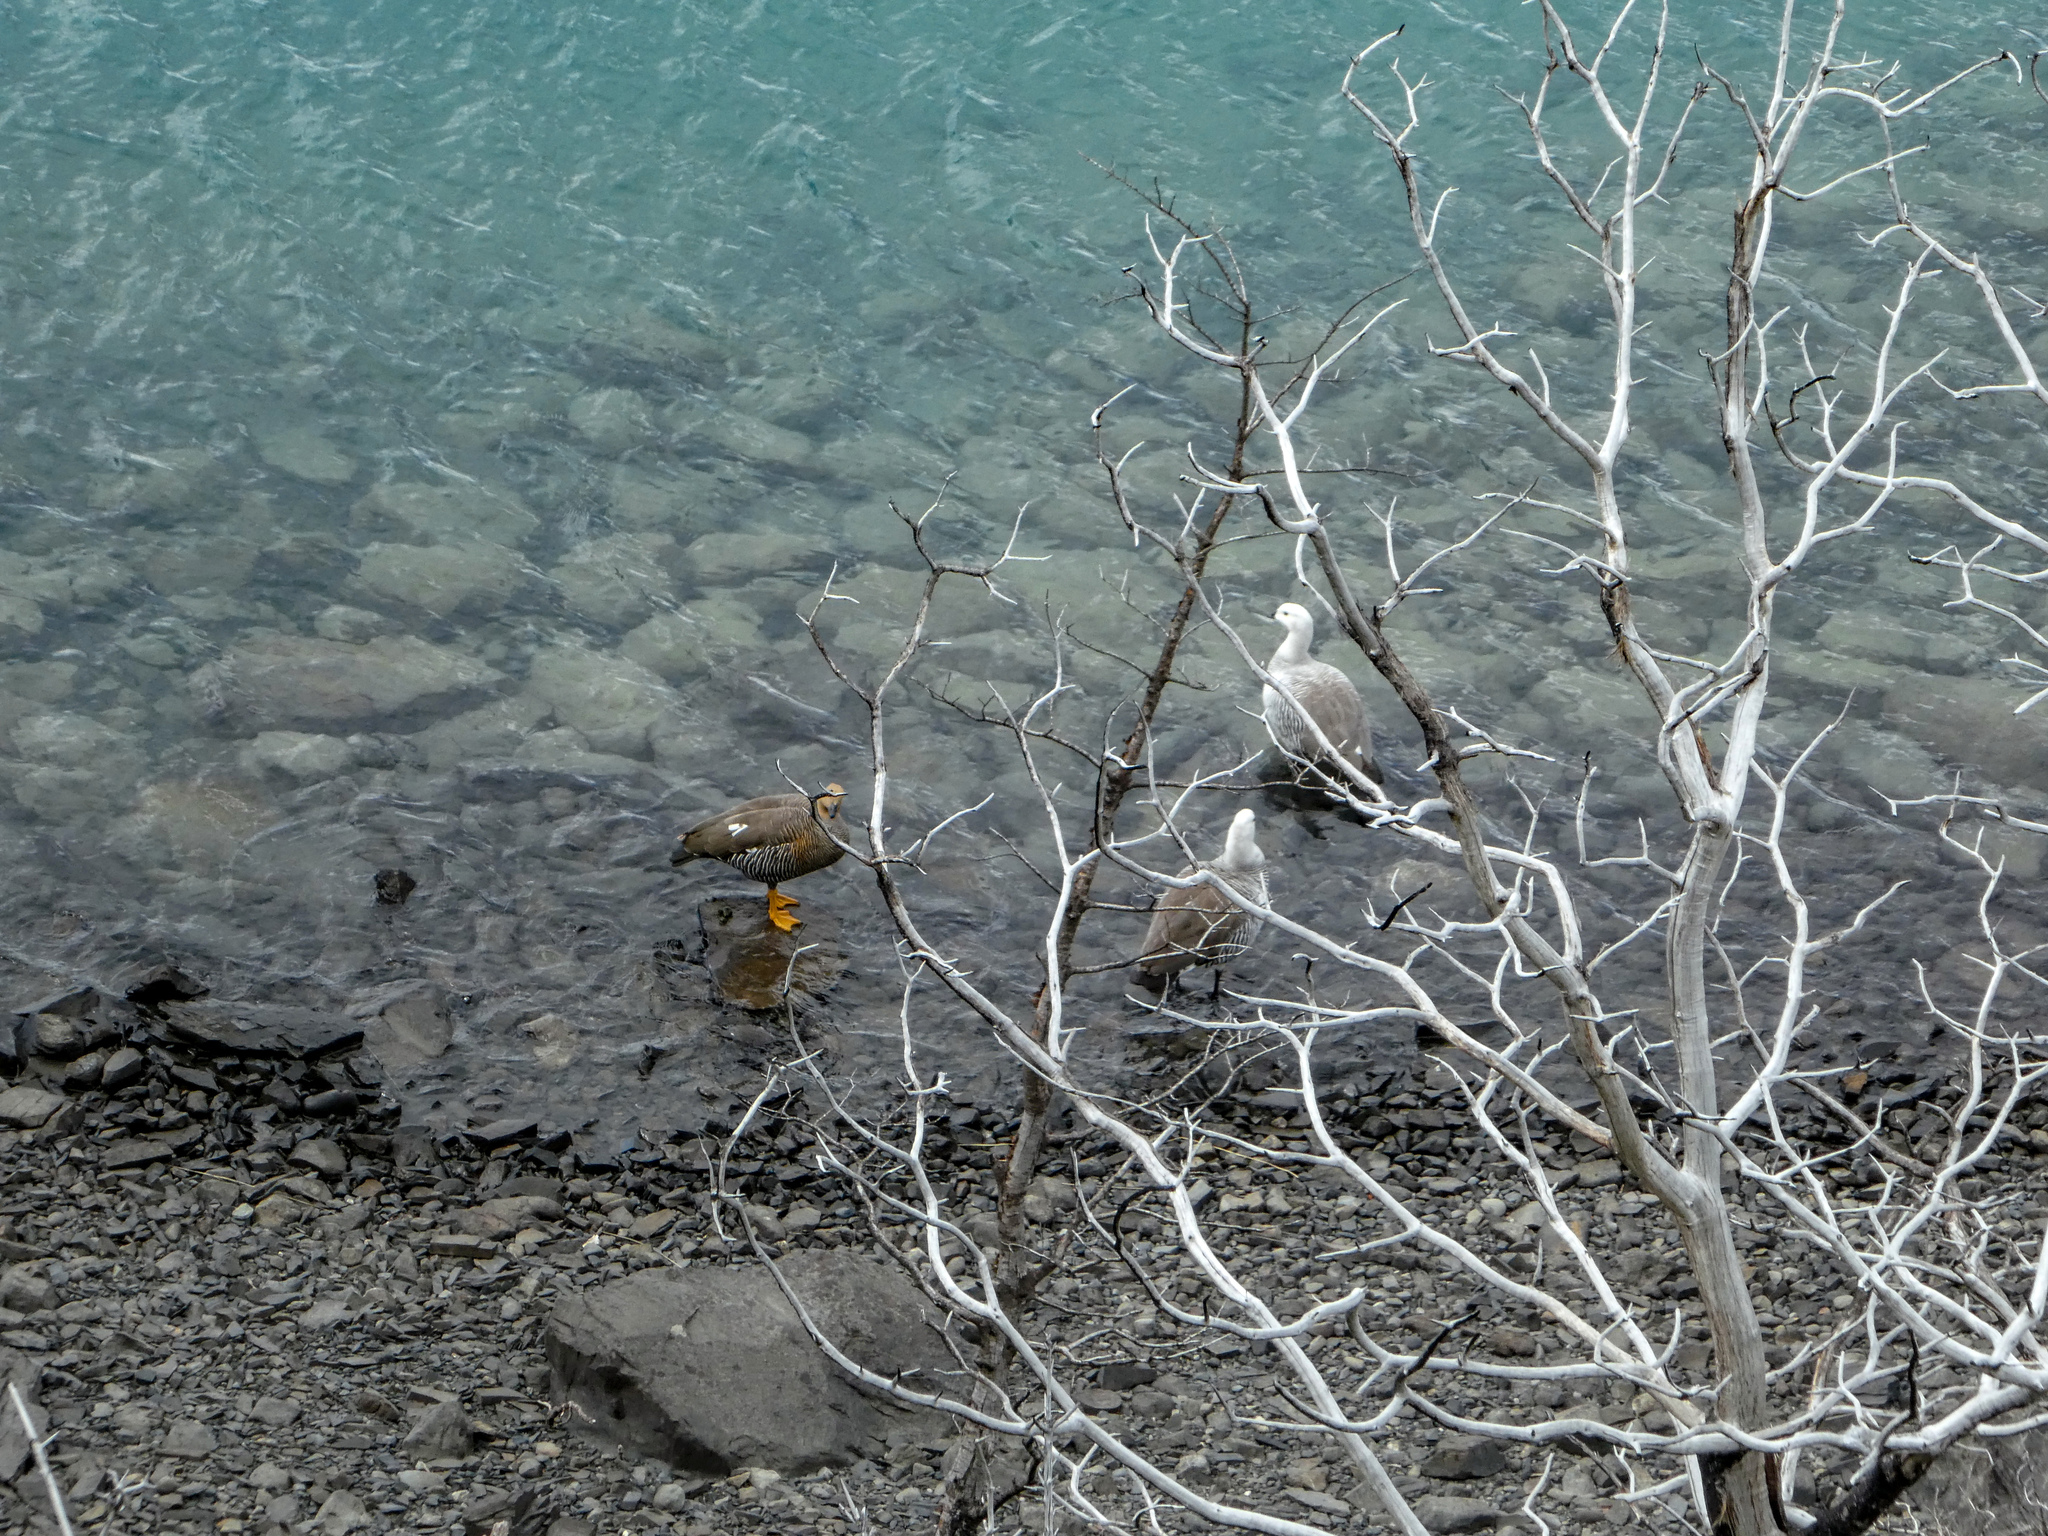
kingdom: Animalia
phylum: Chordata
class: Aves
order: Anseriformes
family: Anatidae
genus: Chloephaga
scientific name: Chloephaga picta
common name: Upland goose
